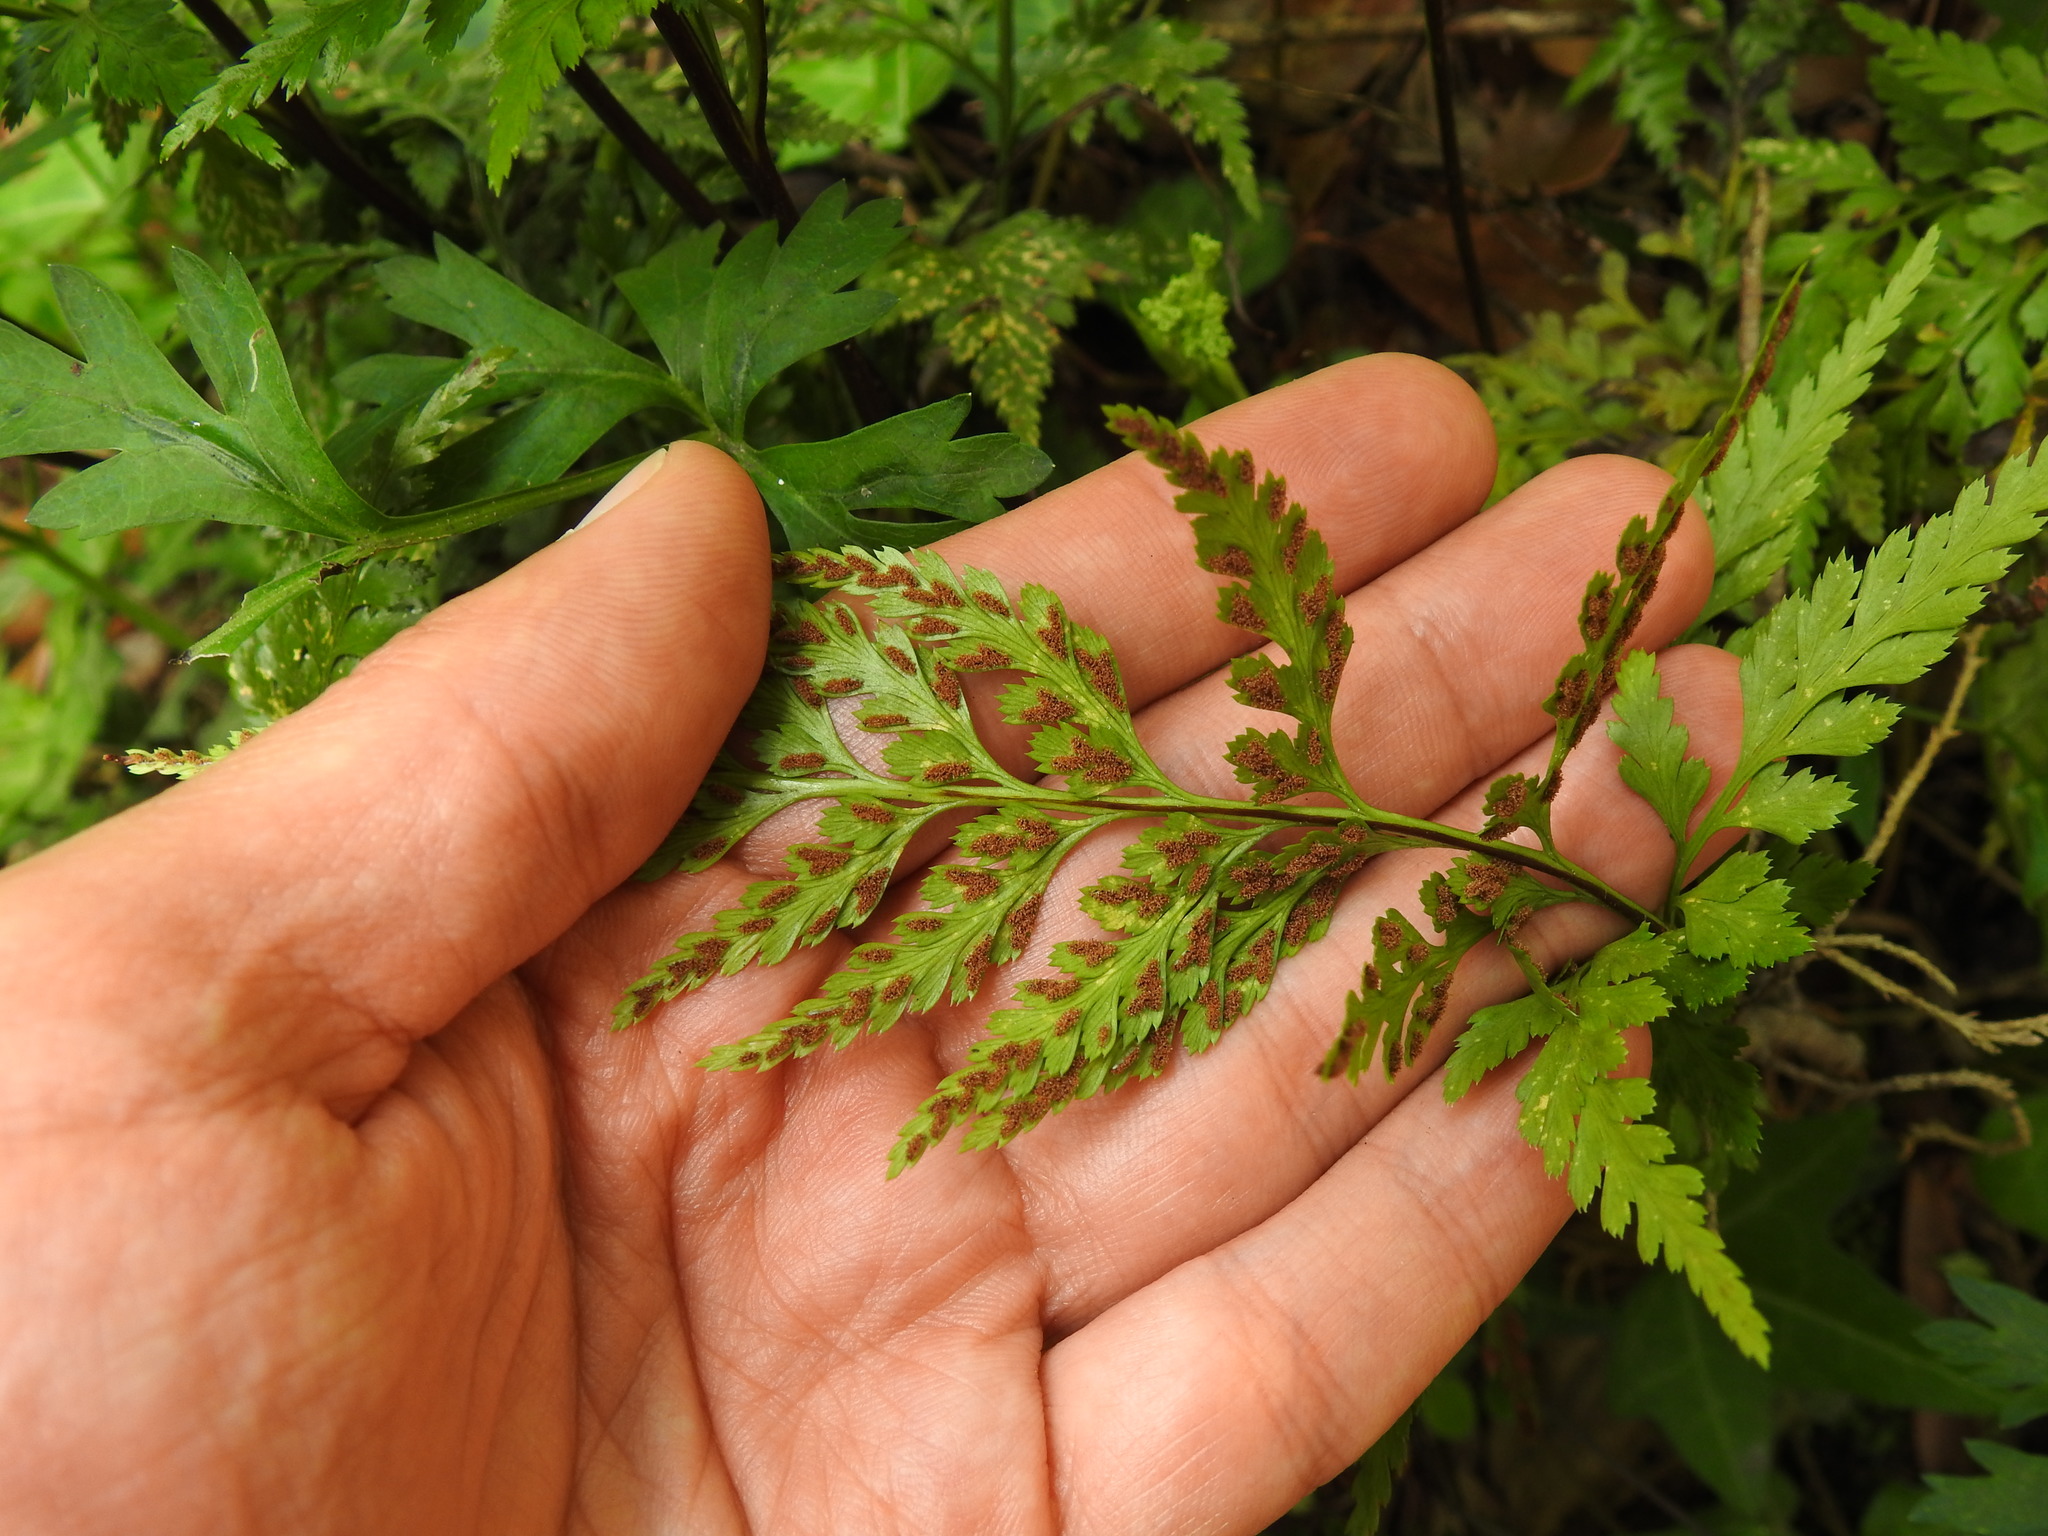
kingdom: Plantae
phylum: Tracheophyta
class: Polypodiopsida
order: Polypodiales
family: Aspleniaceae
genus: Asplenium
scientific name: Asplenium onopteris
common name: Irish spleenwort
